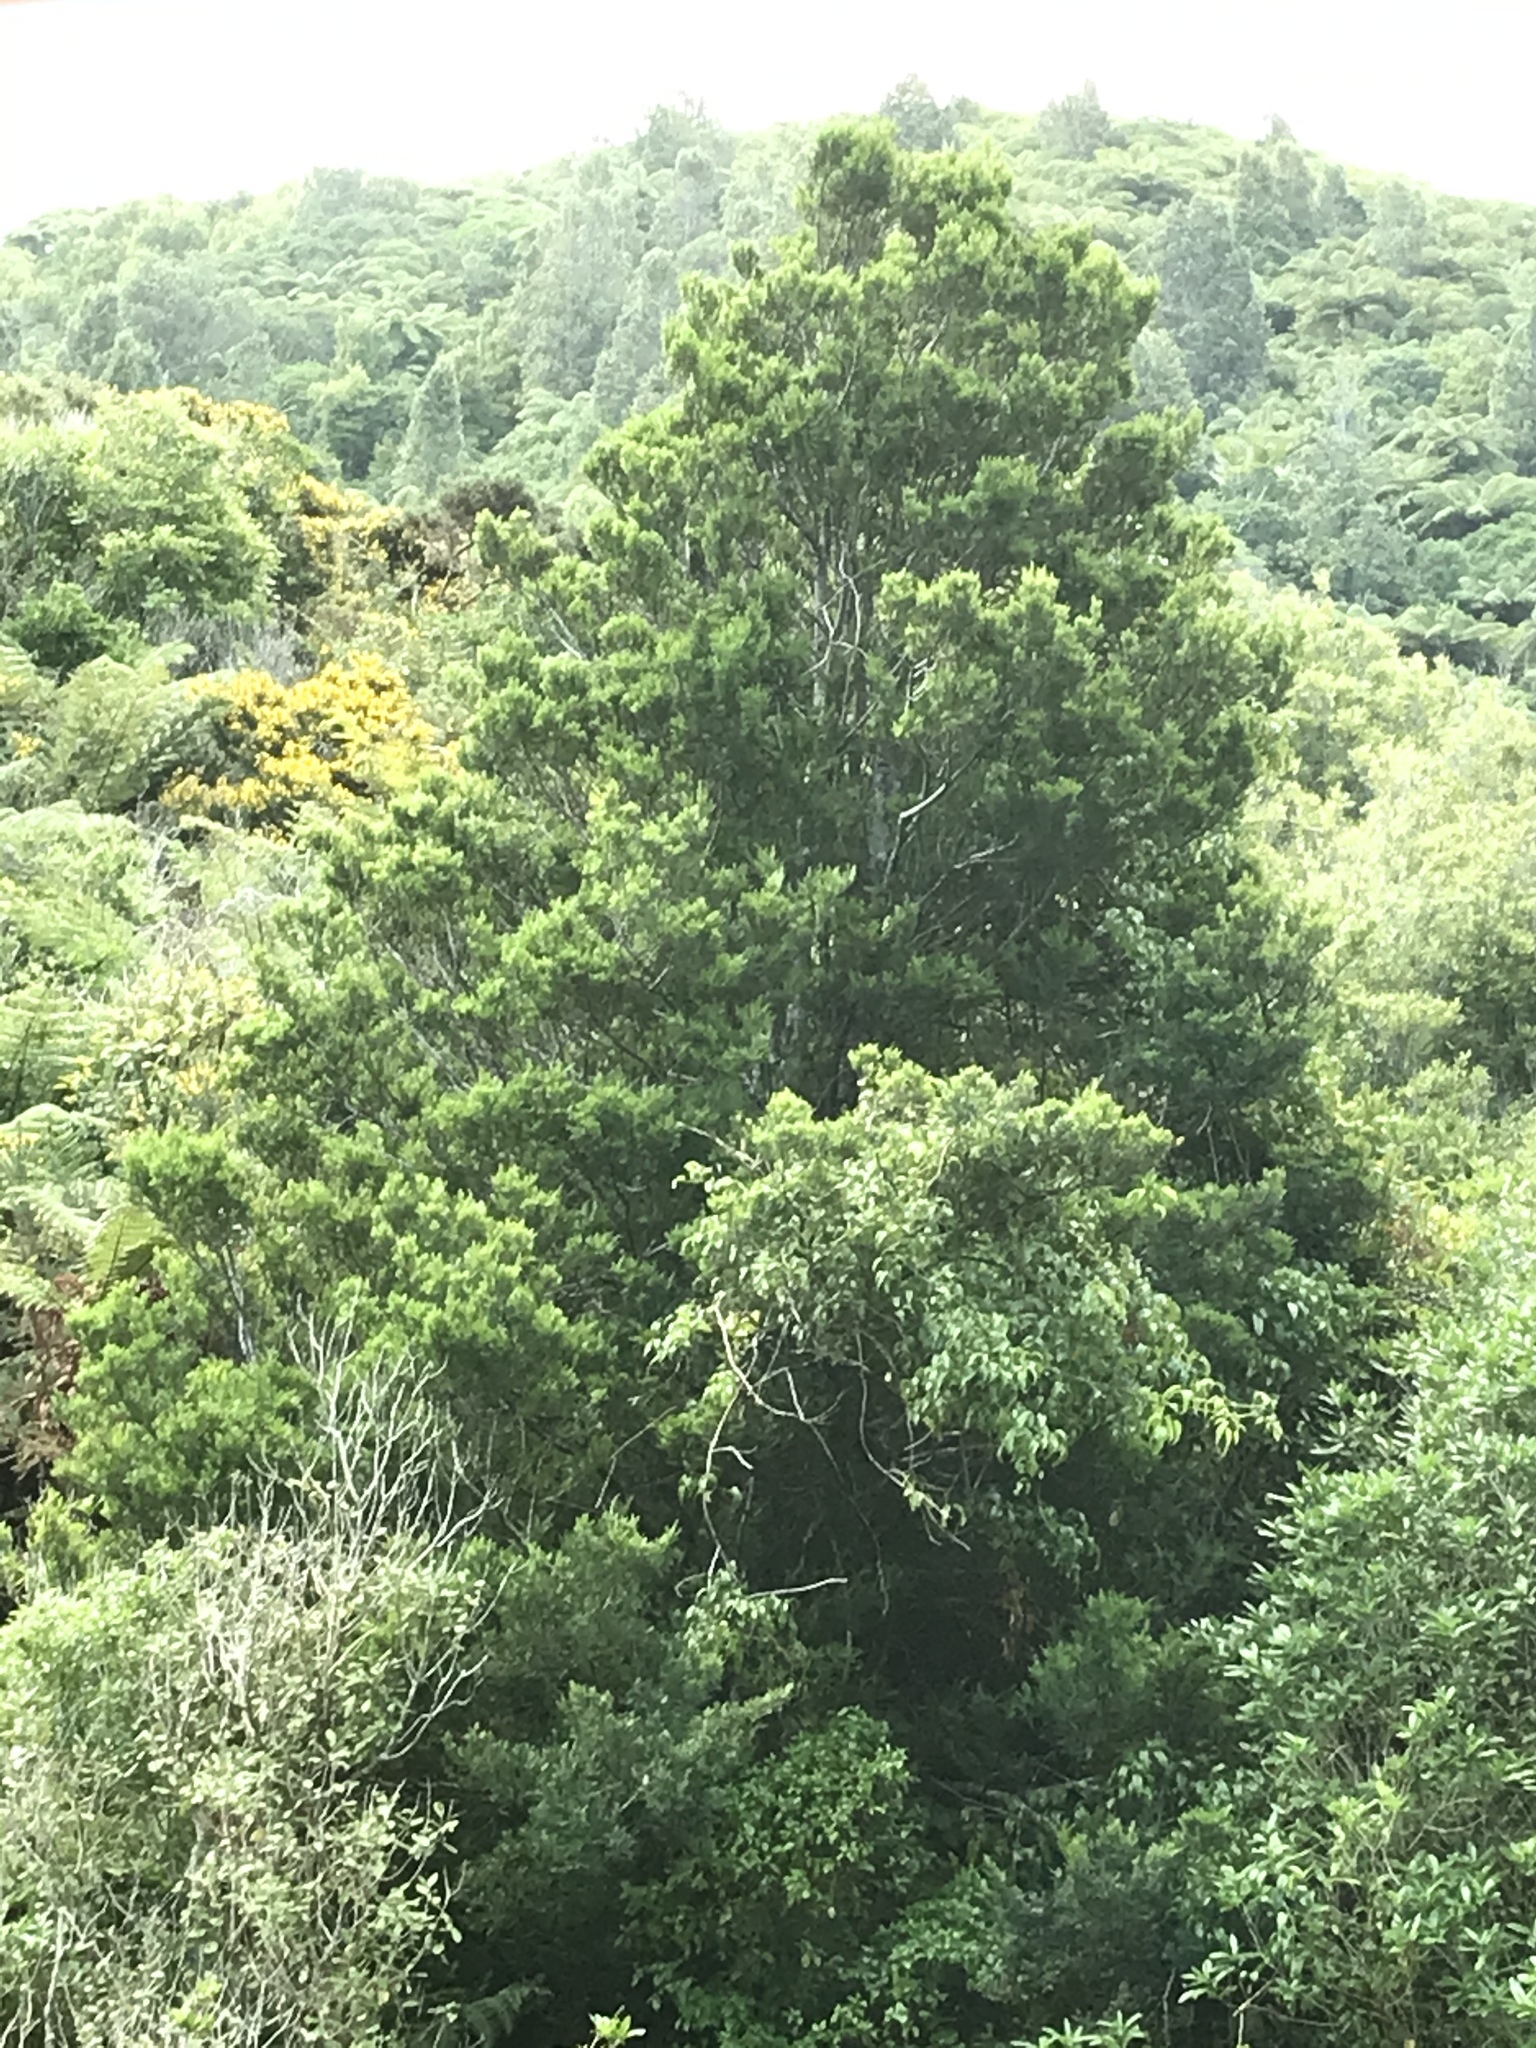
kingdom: Plantae
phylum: Tracheophyta
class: Pinopsida
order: Pinales
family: Podocarpaceae
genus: Prumnopitys
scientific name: Prumnopitys taxifolia
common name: Matai
